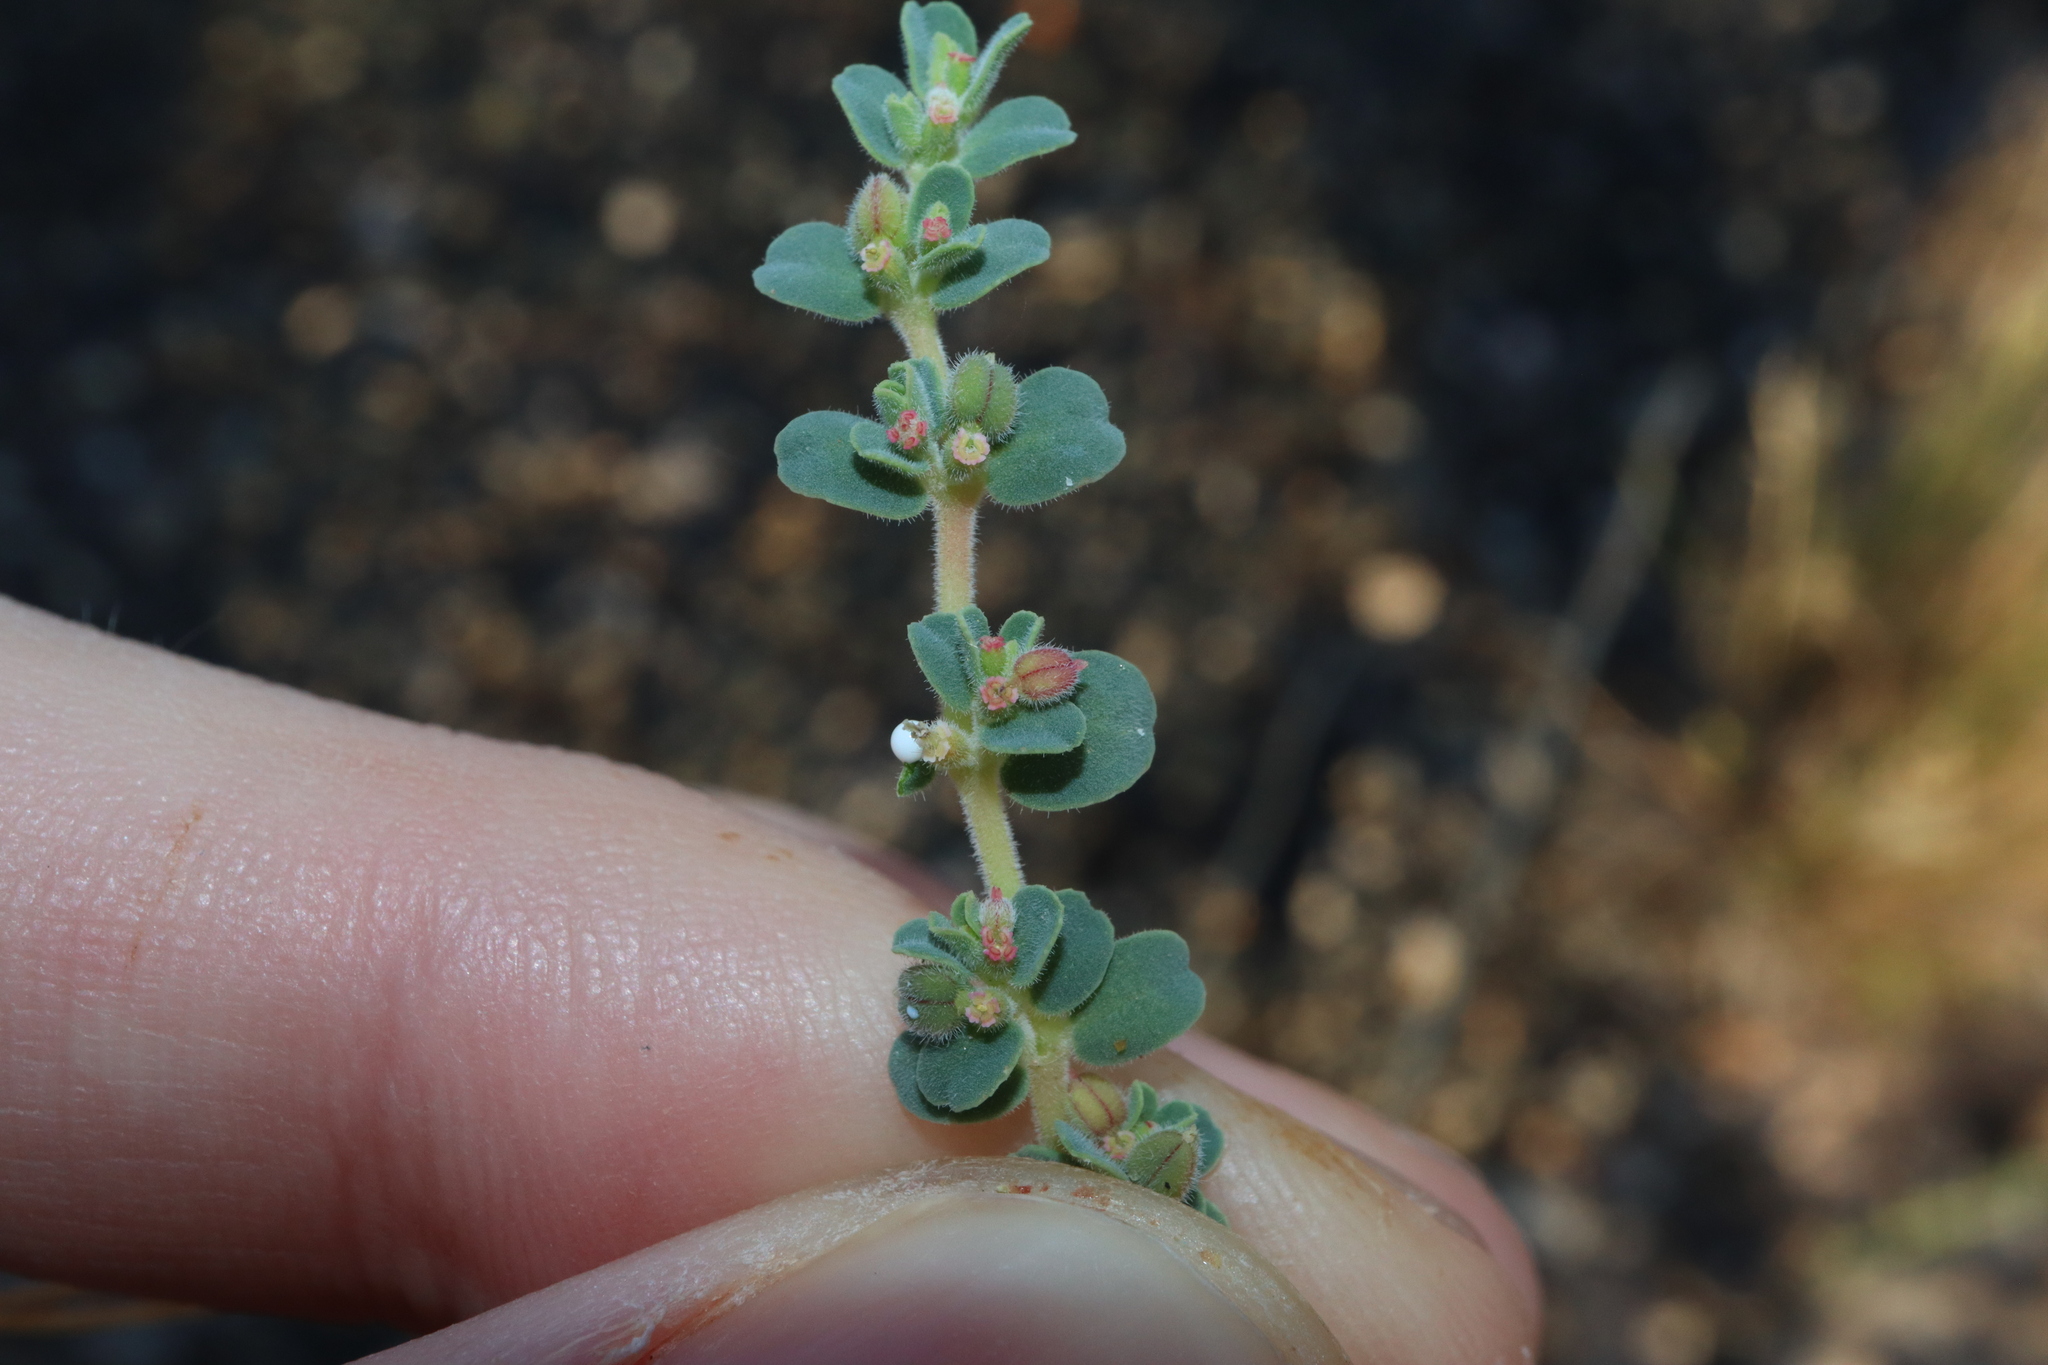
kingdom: Plantae
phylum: Tracheophyta
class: Magnoliopsida
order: Malpighiales
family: Euphorbiaceae
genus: Euphorbia
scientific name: Euphorbia australis
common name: Hairy causticweed
